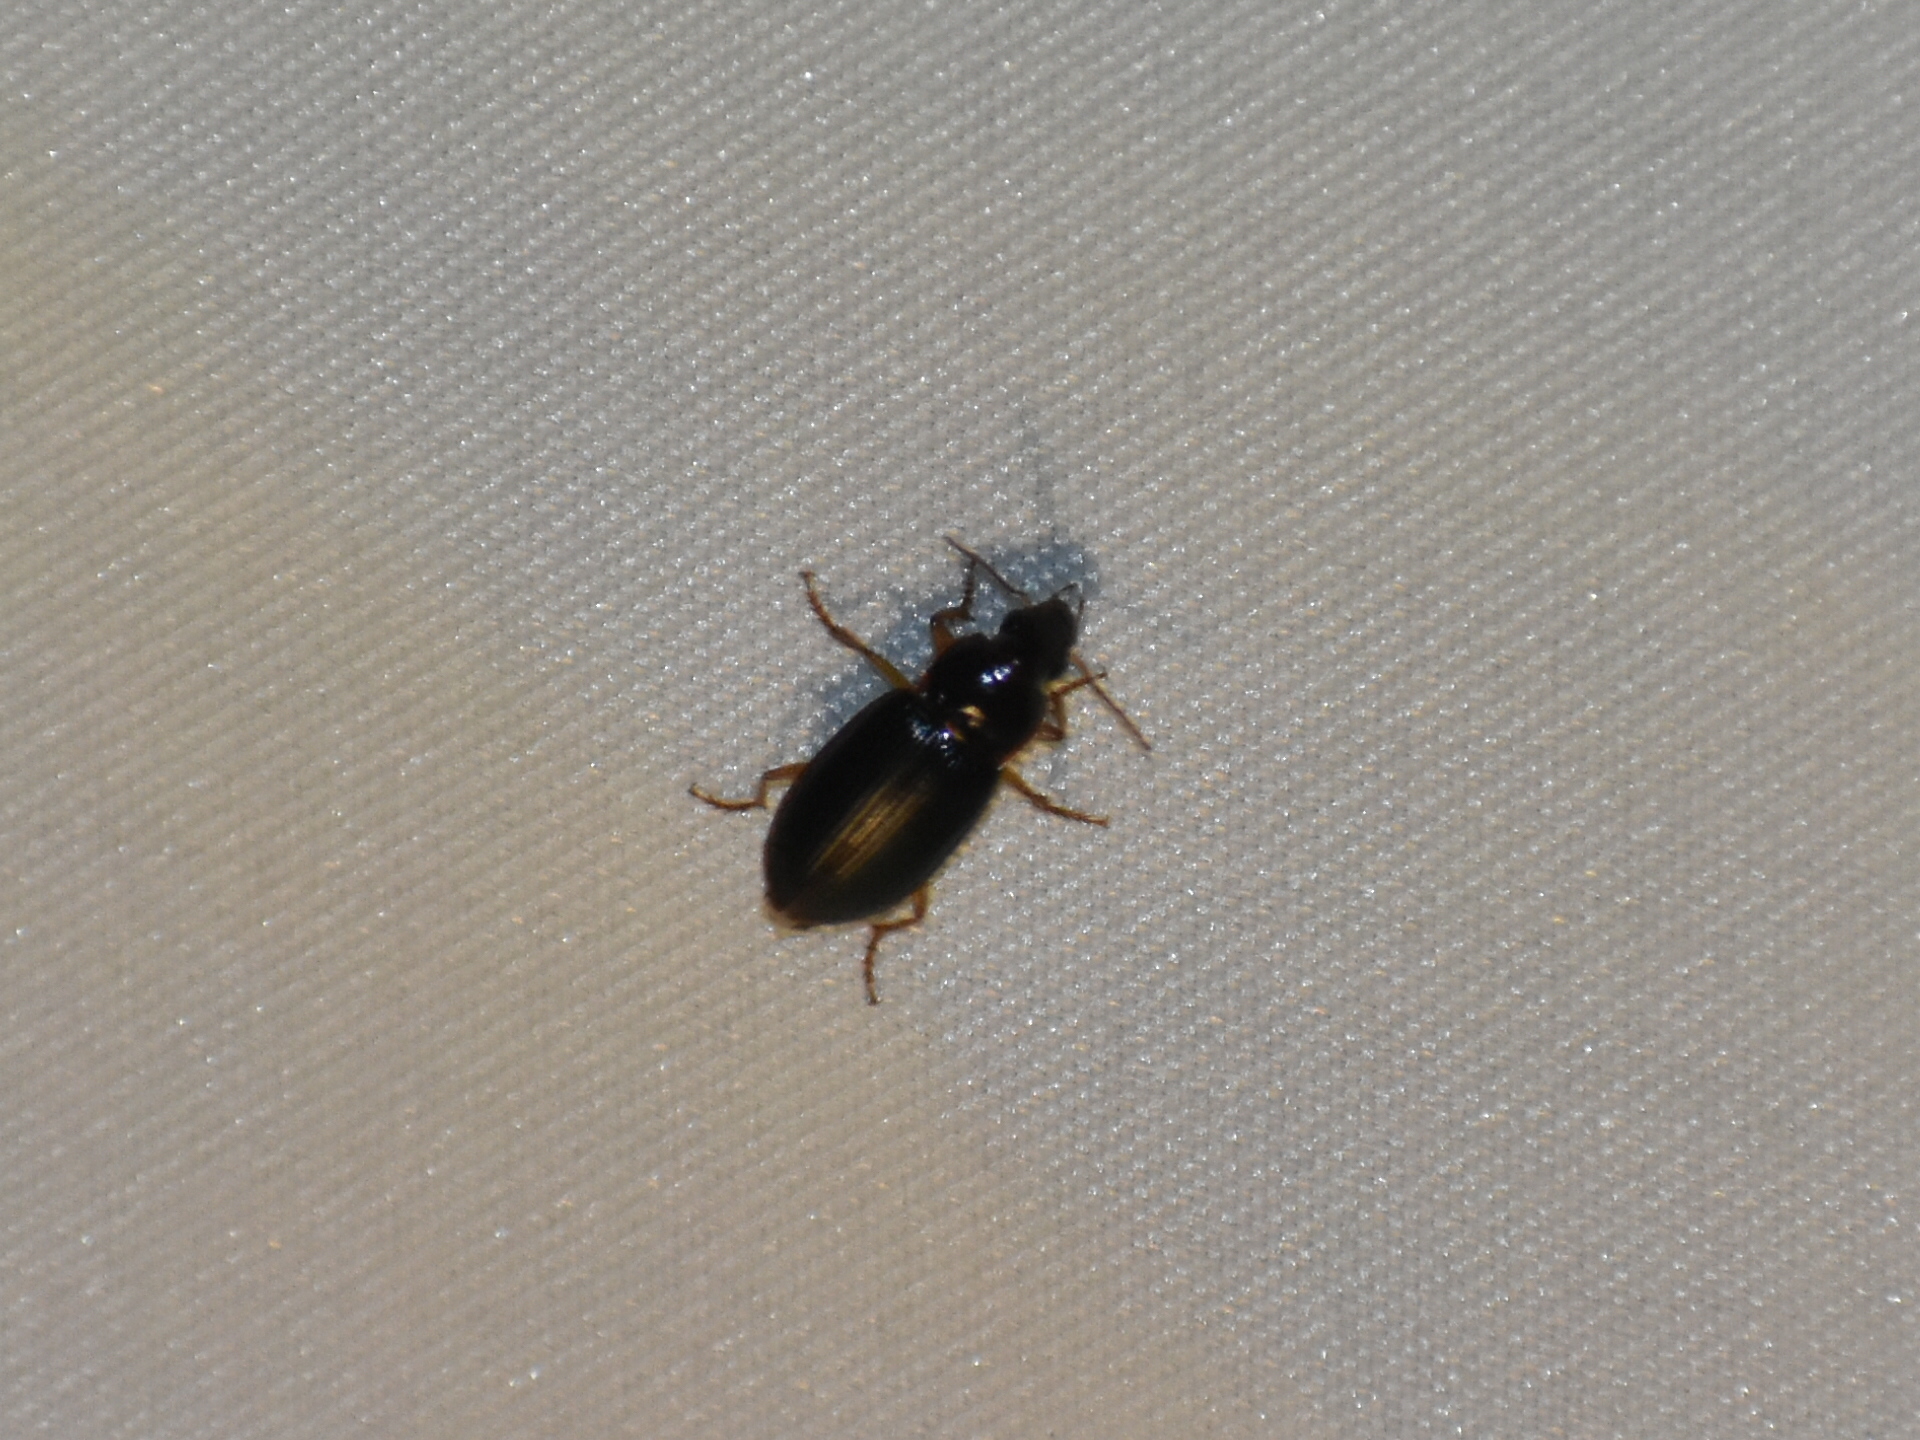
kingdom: Animalia
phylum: Arthropoda
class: Insecta
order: Coleoptera
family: Carabidae
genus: Notiobia
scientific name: Notiobia terminata
